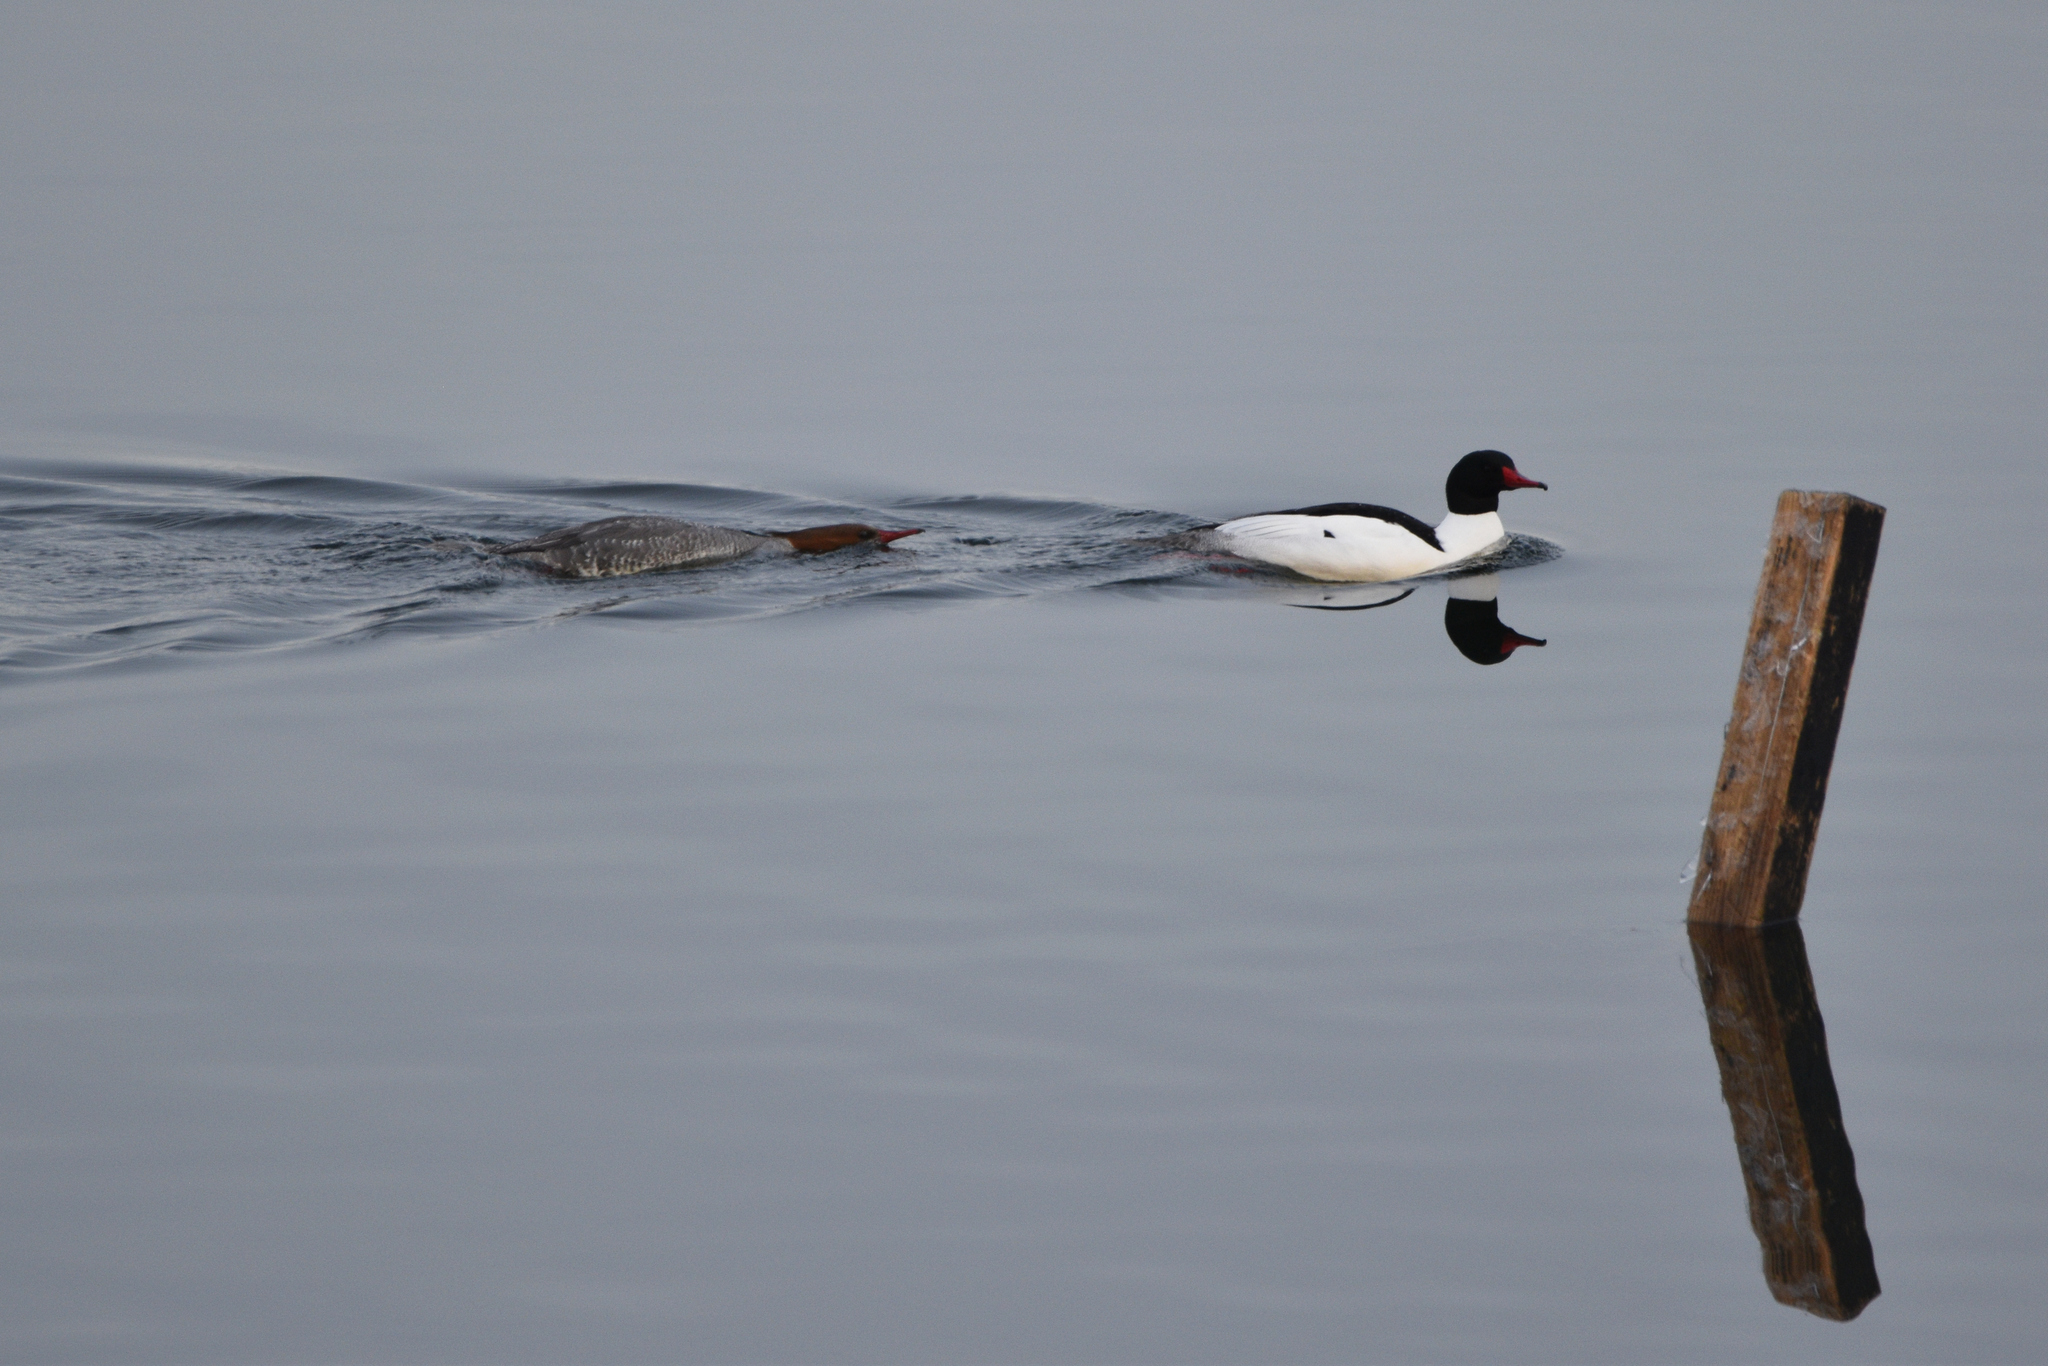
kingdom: Animalia
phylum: Chordata
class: Aves
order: Anseriformes
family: Anatidae
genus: Mergus
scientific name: Mergus merganser
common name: Common merganser
